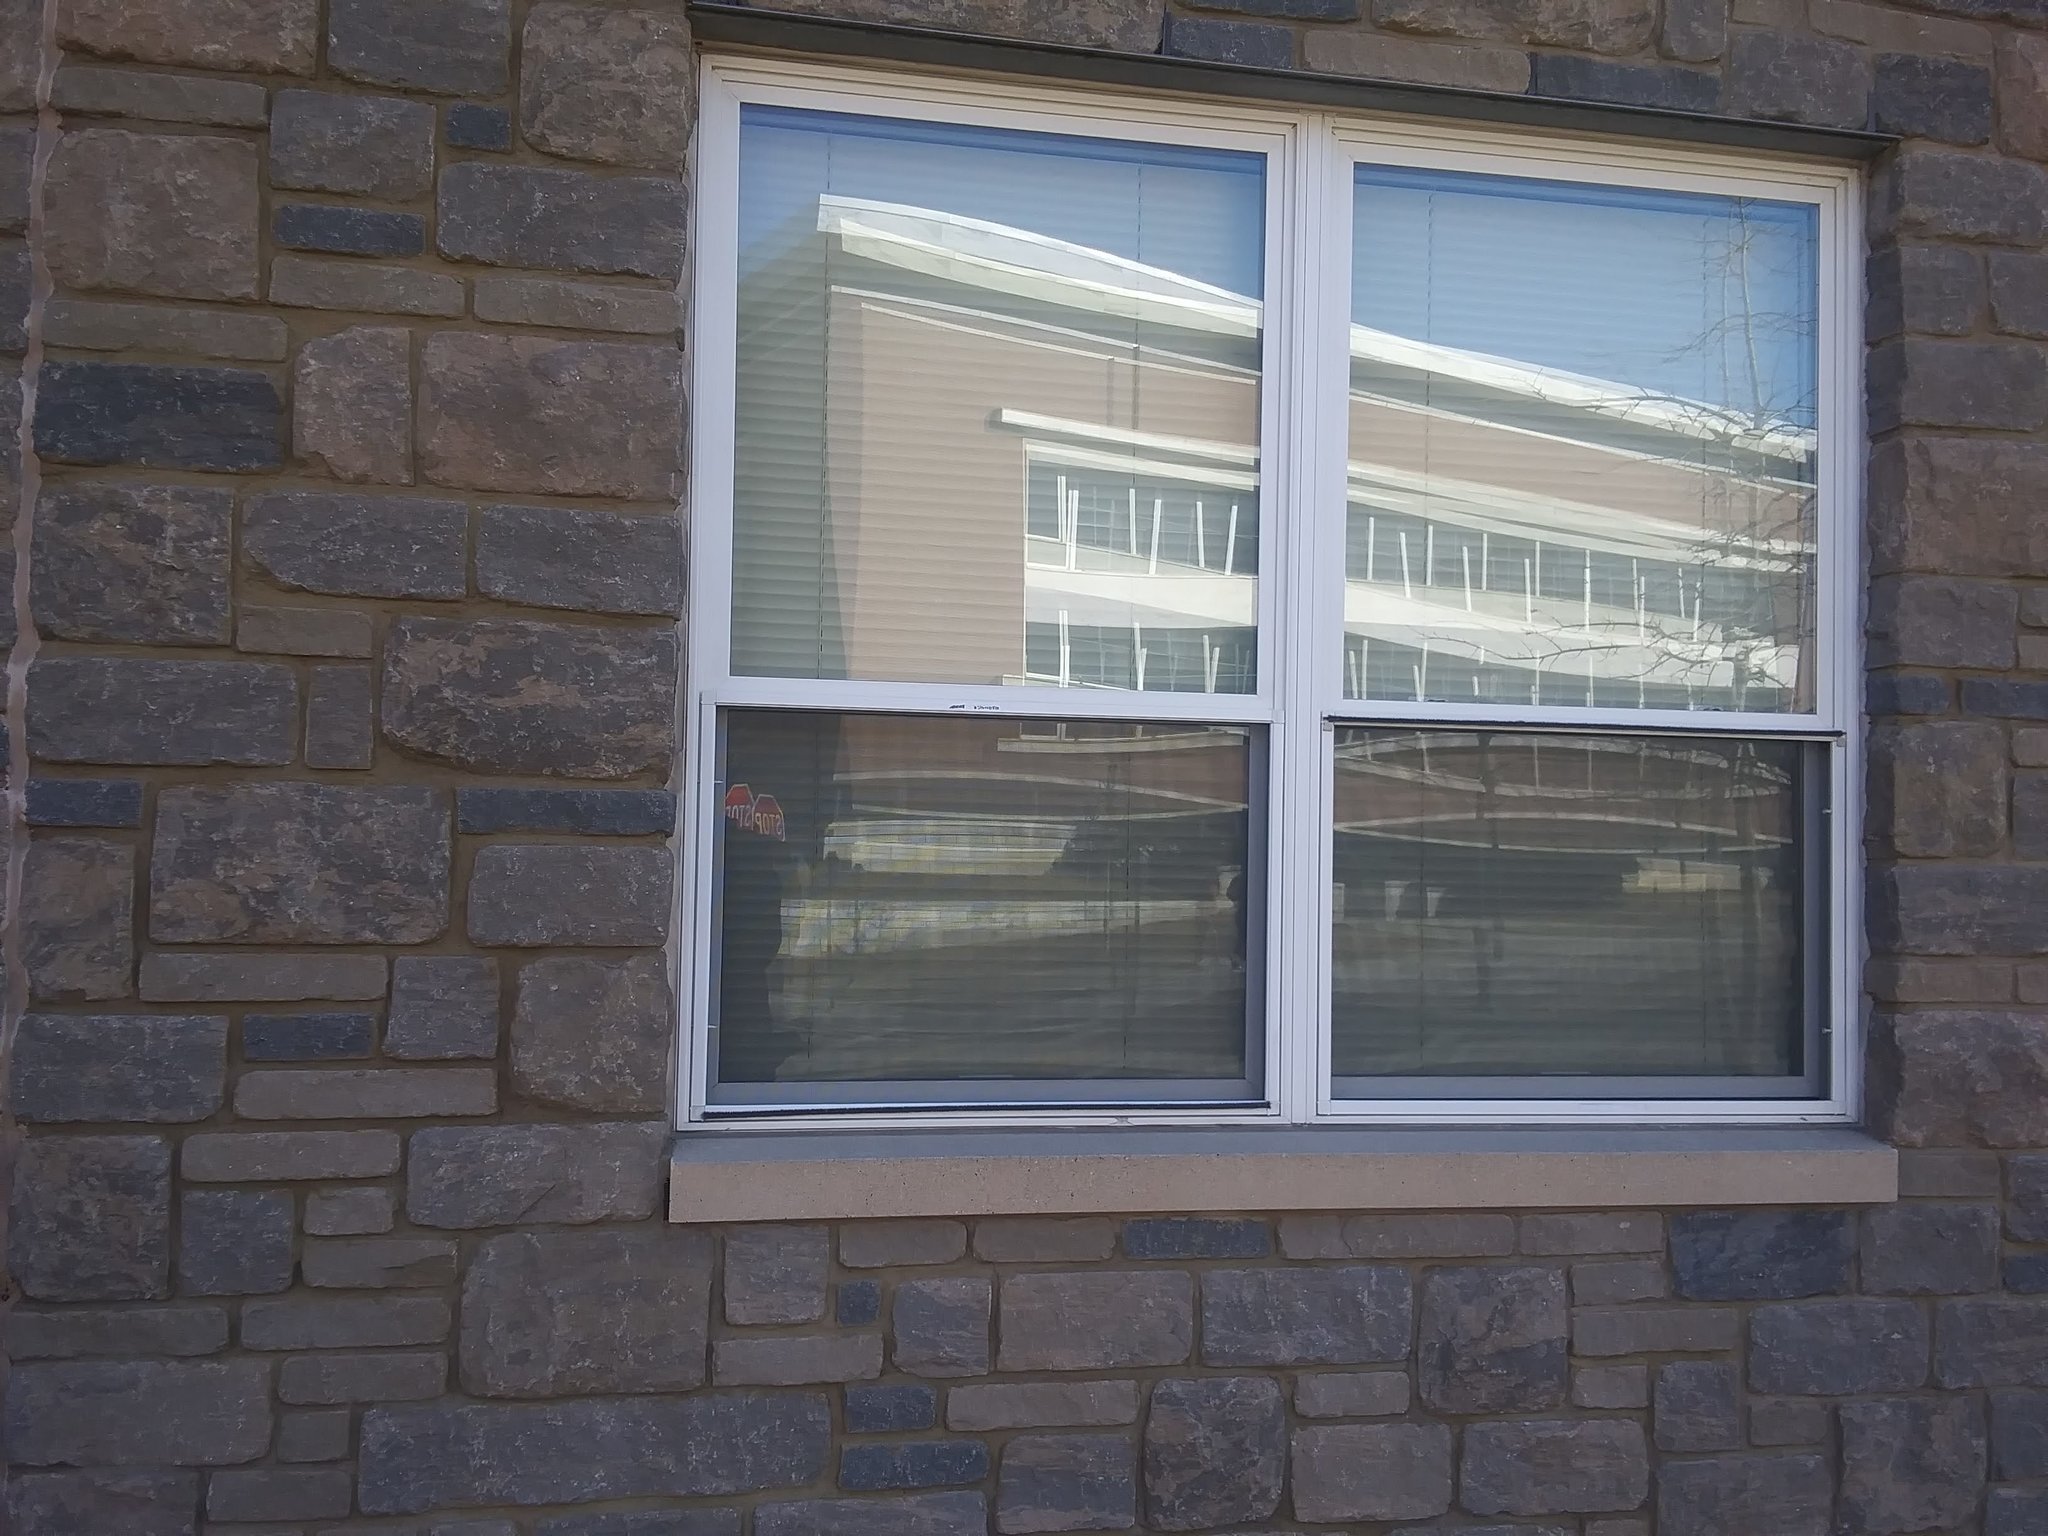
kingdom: Animalia
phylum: Chordata
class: Aves
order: Passeriformes
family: Fringillidae
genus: Haemorhous
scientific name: Haemorhous mexicanus
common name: House finch
